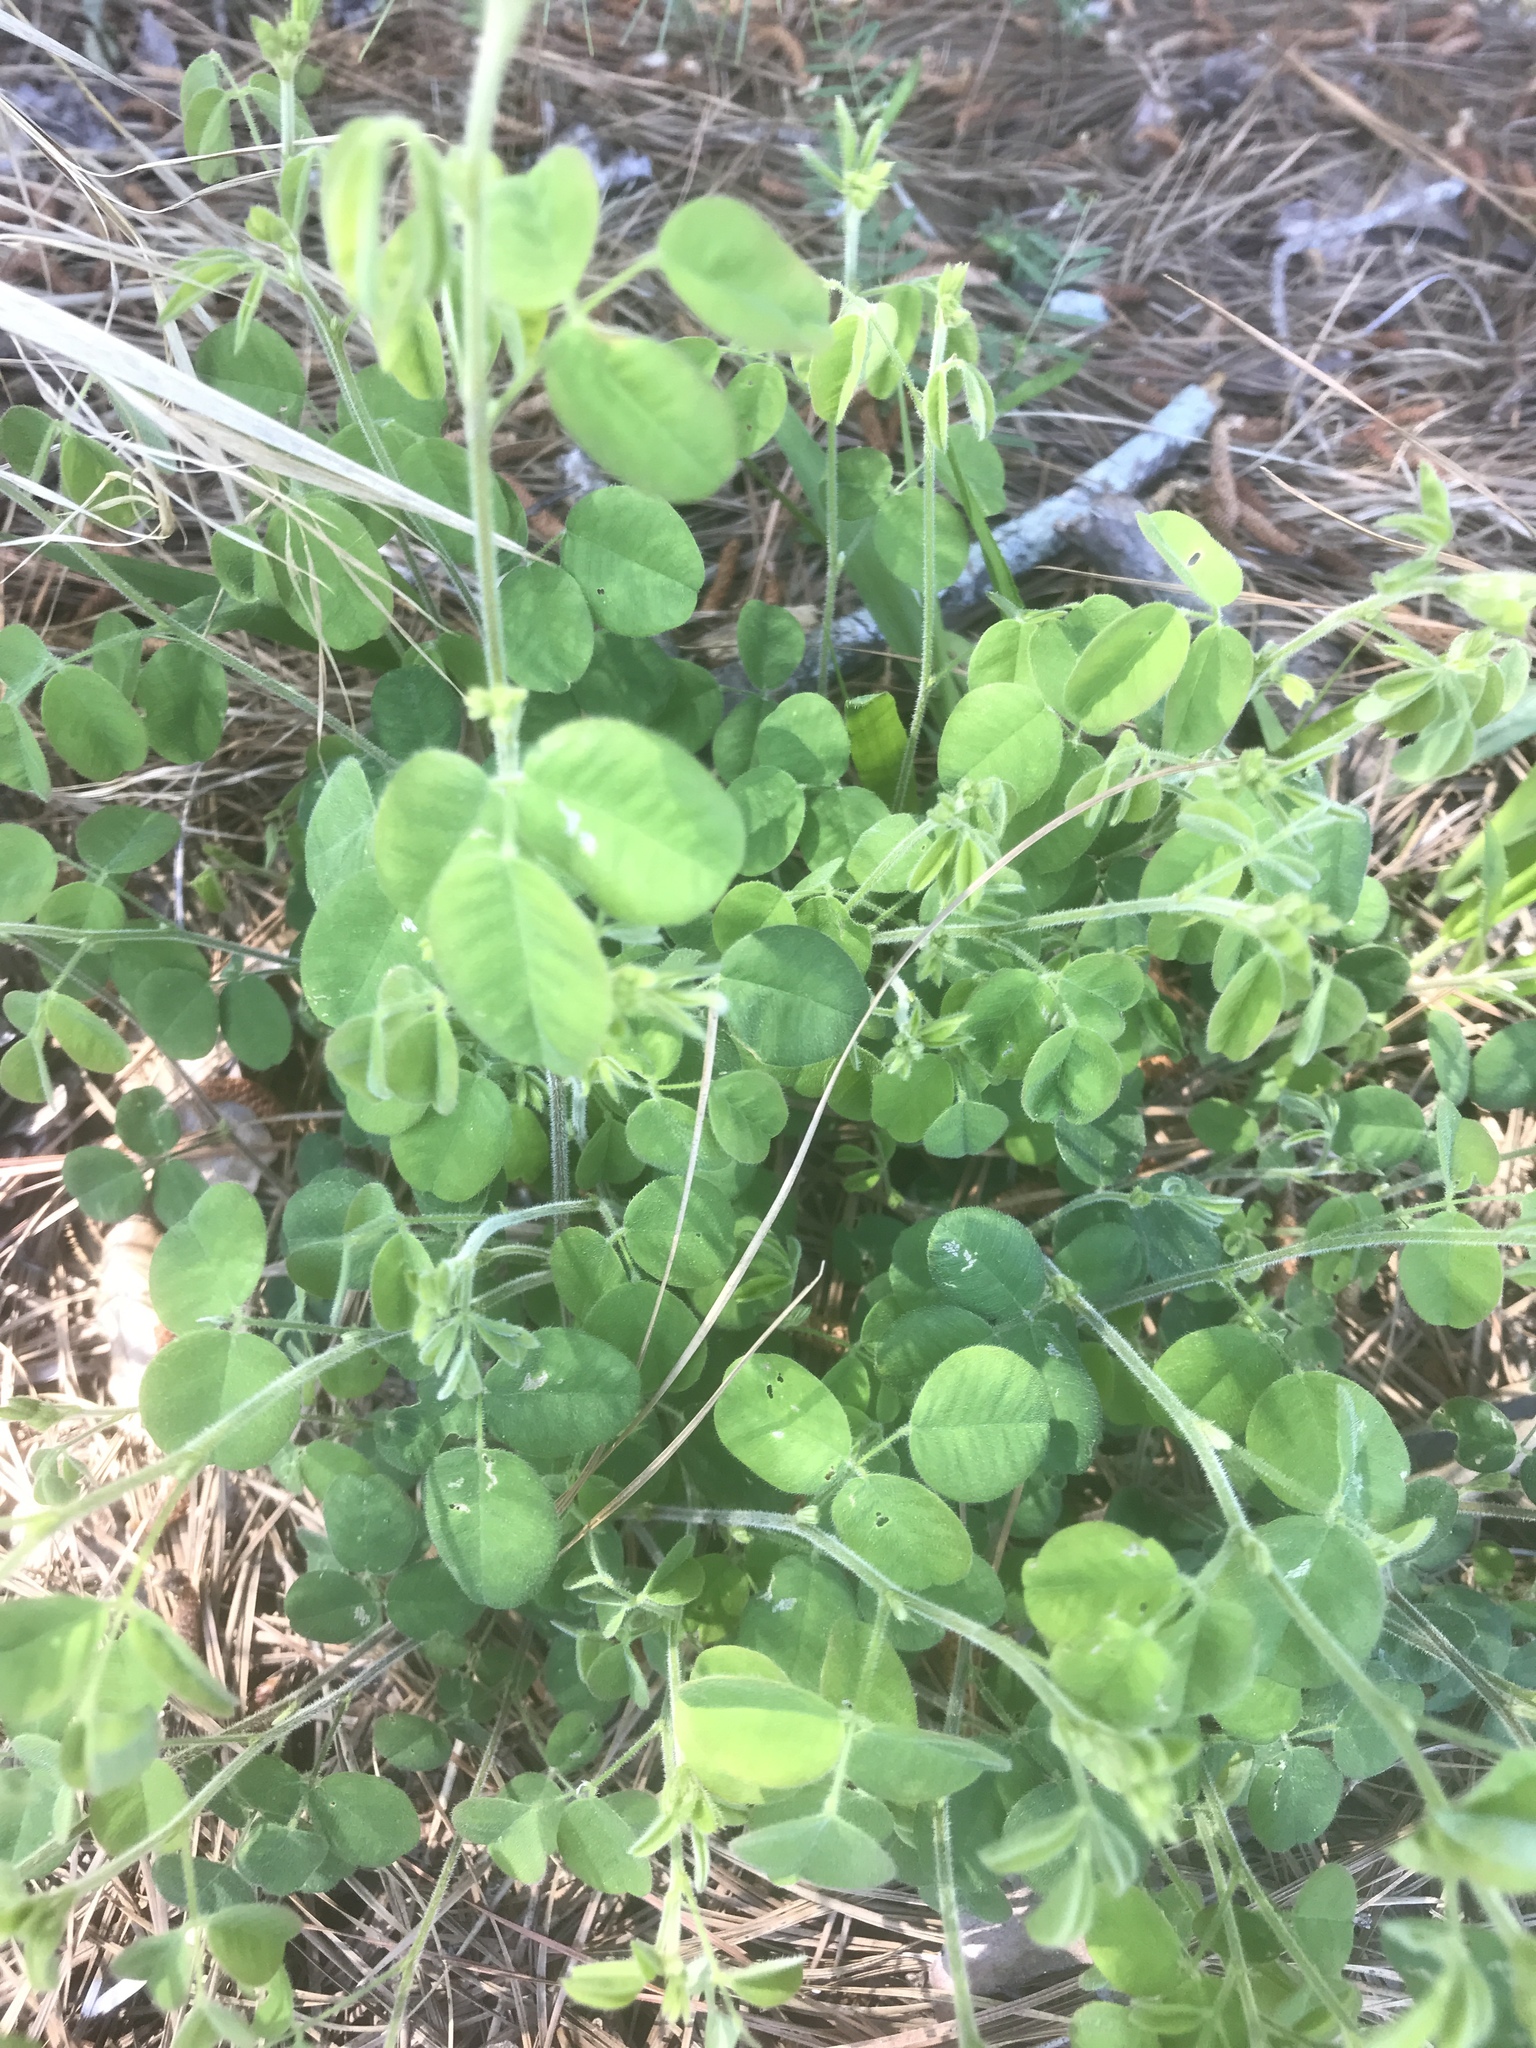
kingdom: Plantae
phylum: Tracheophyta
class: Magnoliopsida
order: Fabales
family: Fabaceae
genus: Lespedeza
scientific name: Lespedeza hirta
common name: Hairy lespedeza
